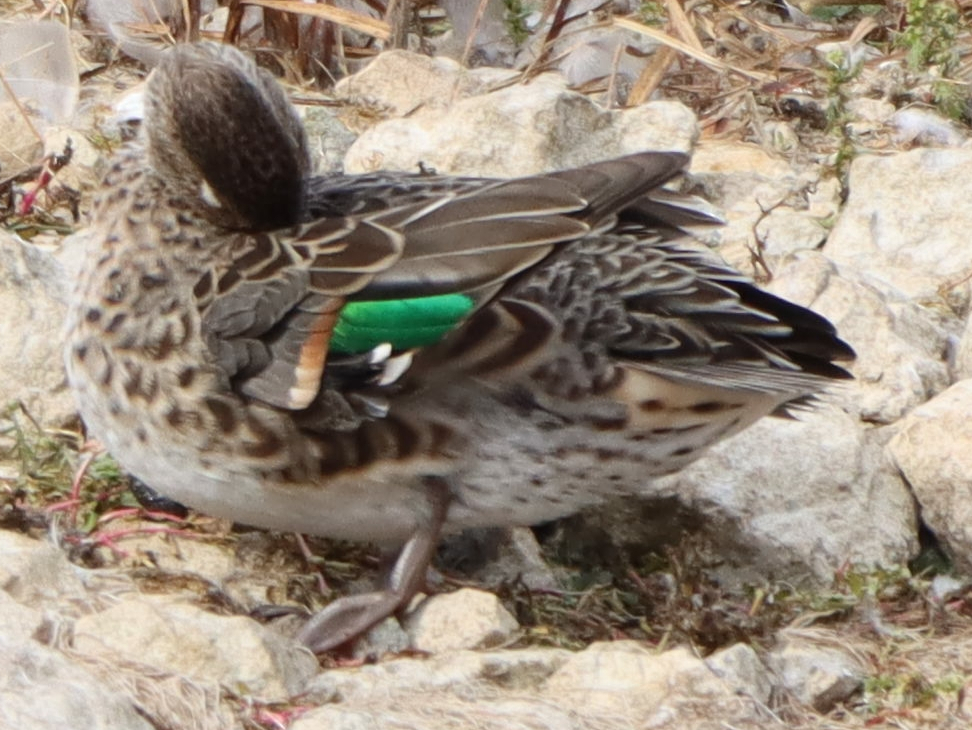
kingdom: Animalia
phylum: Chordata
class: Aves
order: Anseriformes
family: Anatidae
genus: Anas
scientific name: Anas crecca
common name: Eurasian teal
